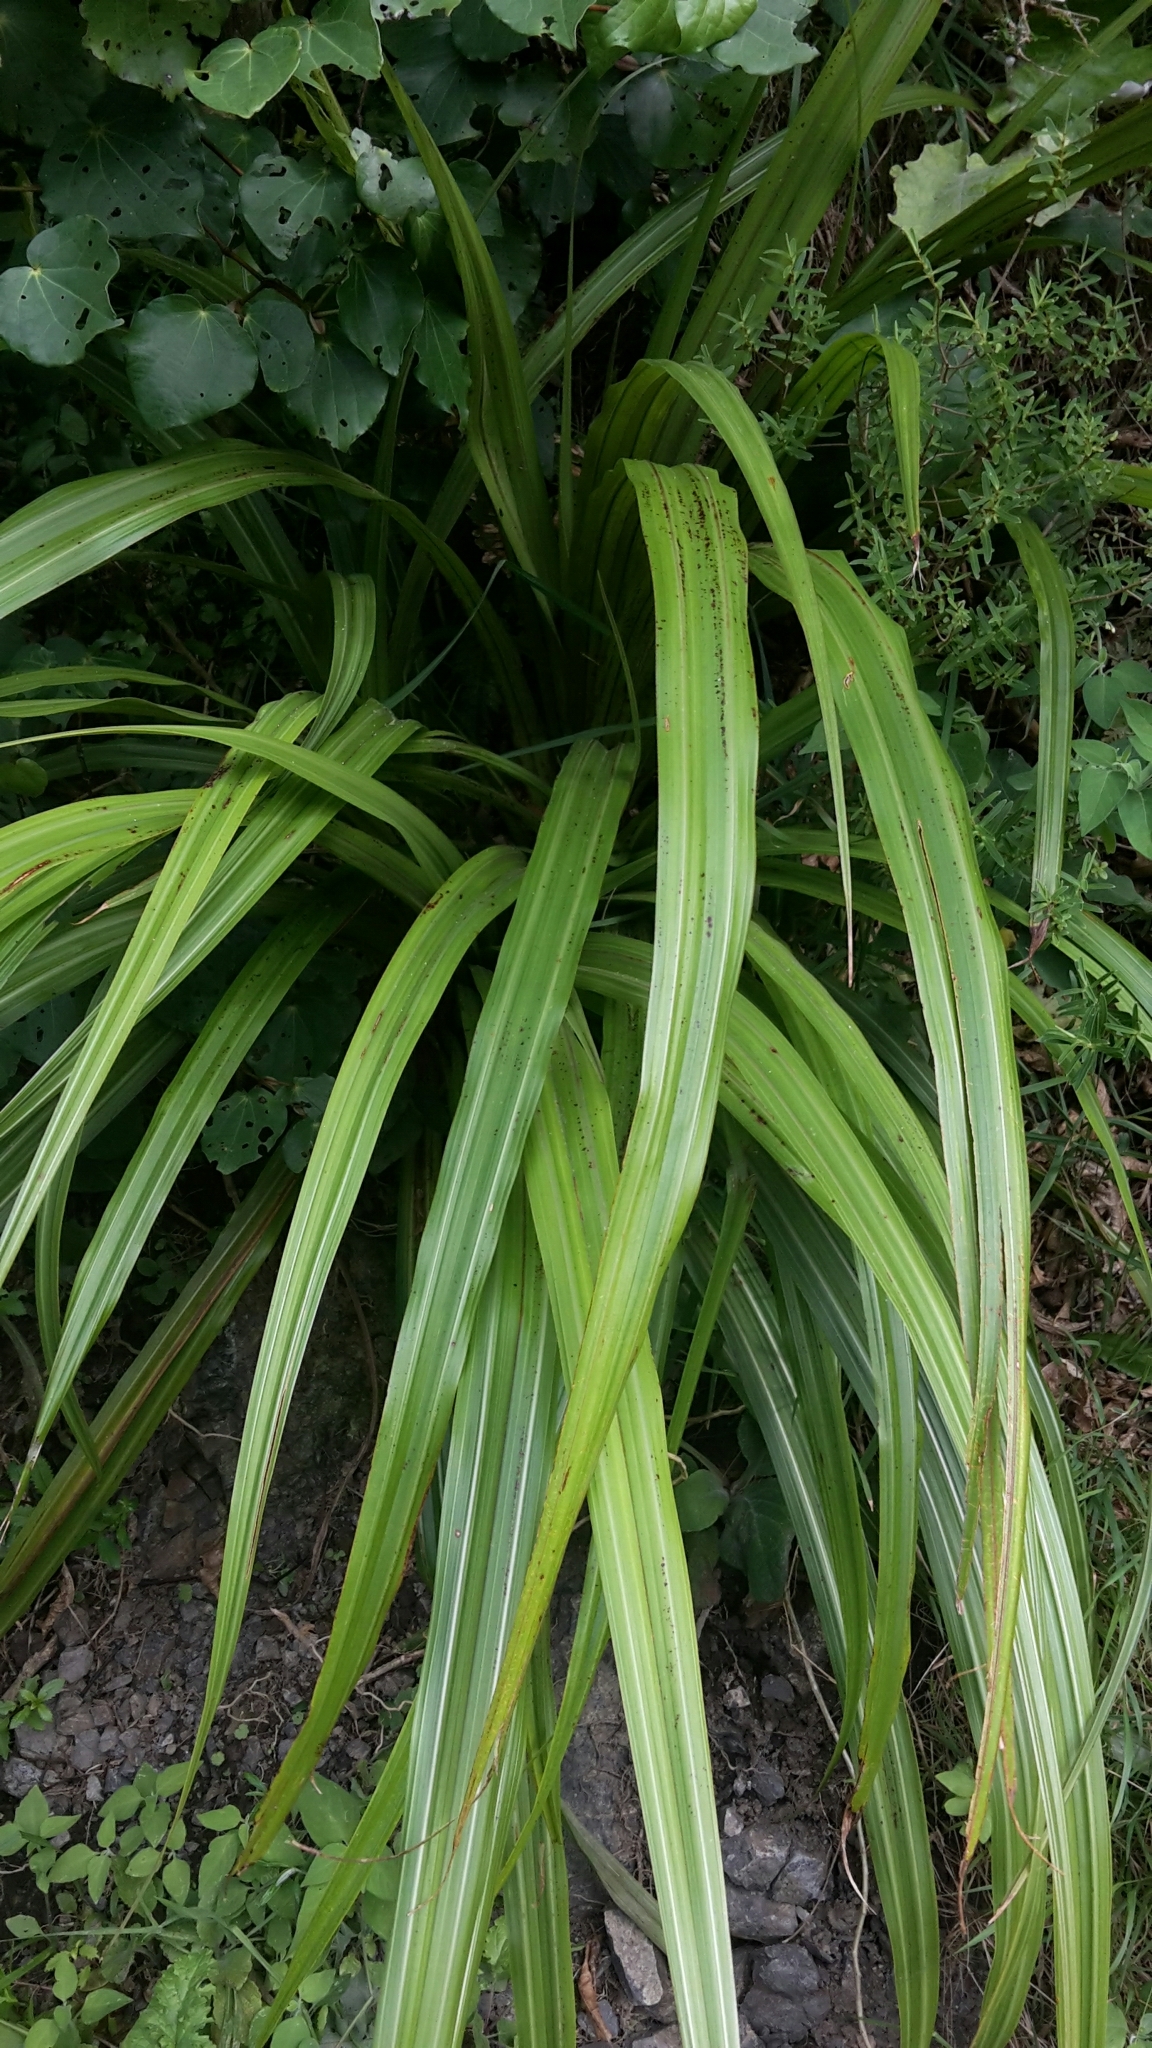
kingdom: Plantae
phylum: Tracheophyta
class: Liliopsida
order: Asparagales
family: Asteliaceae
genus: Astelia
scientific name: Astelia fragrans
